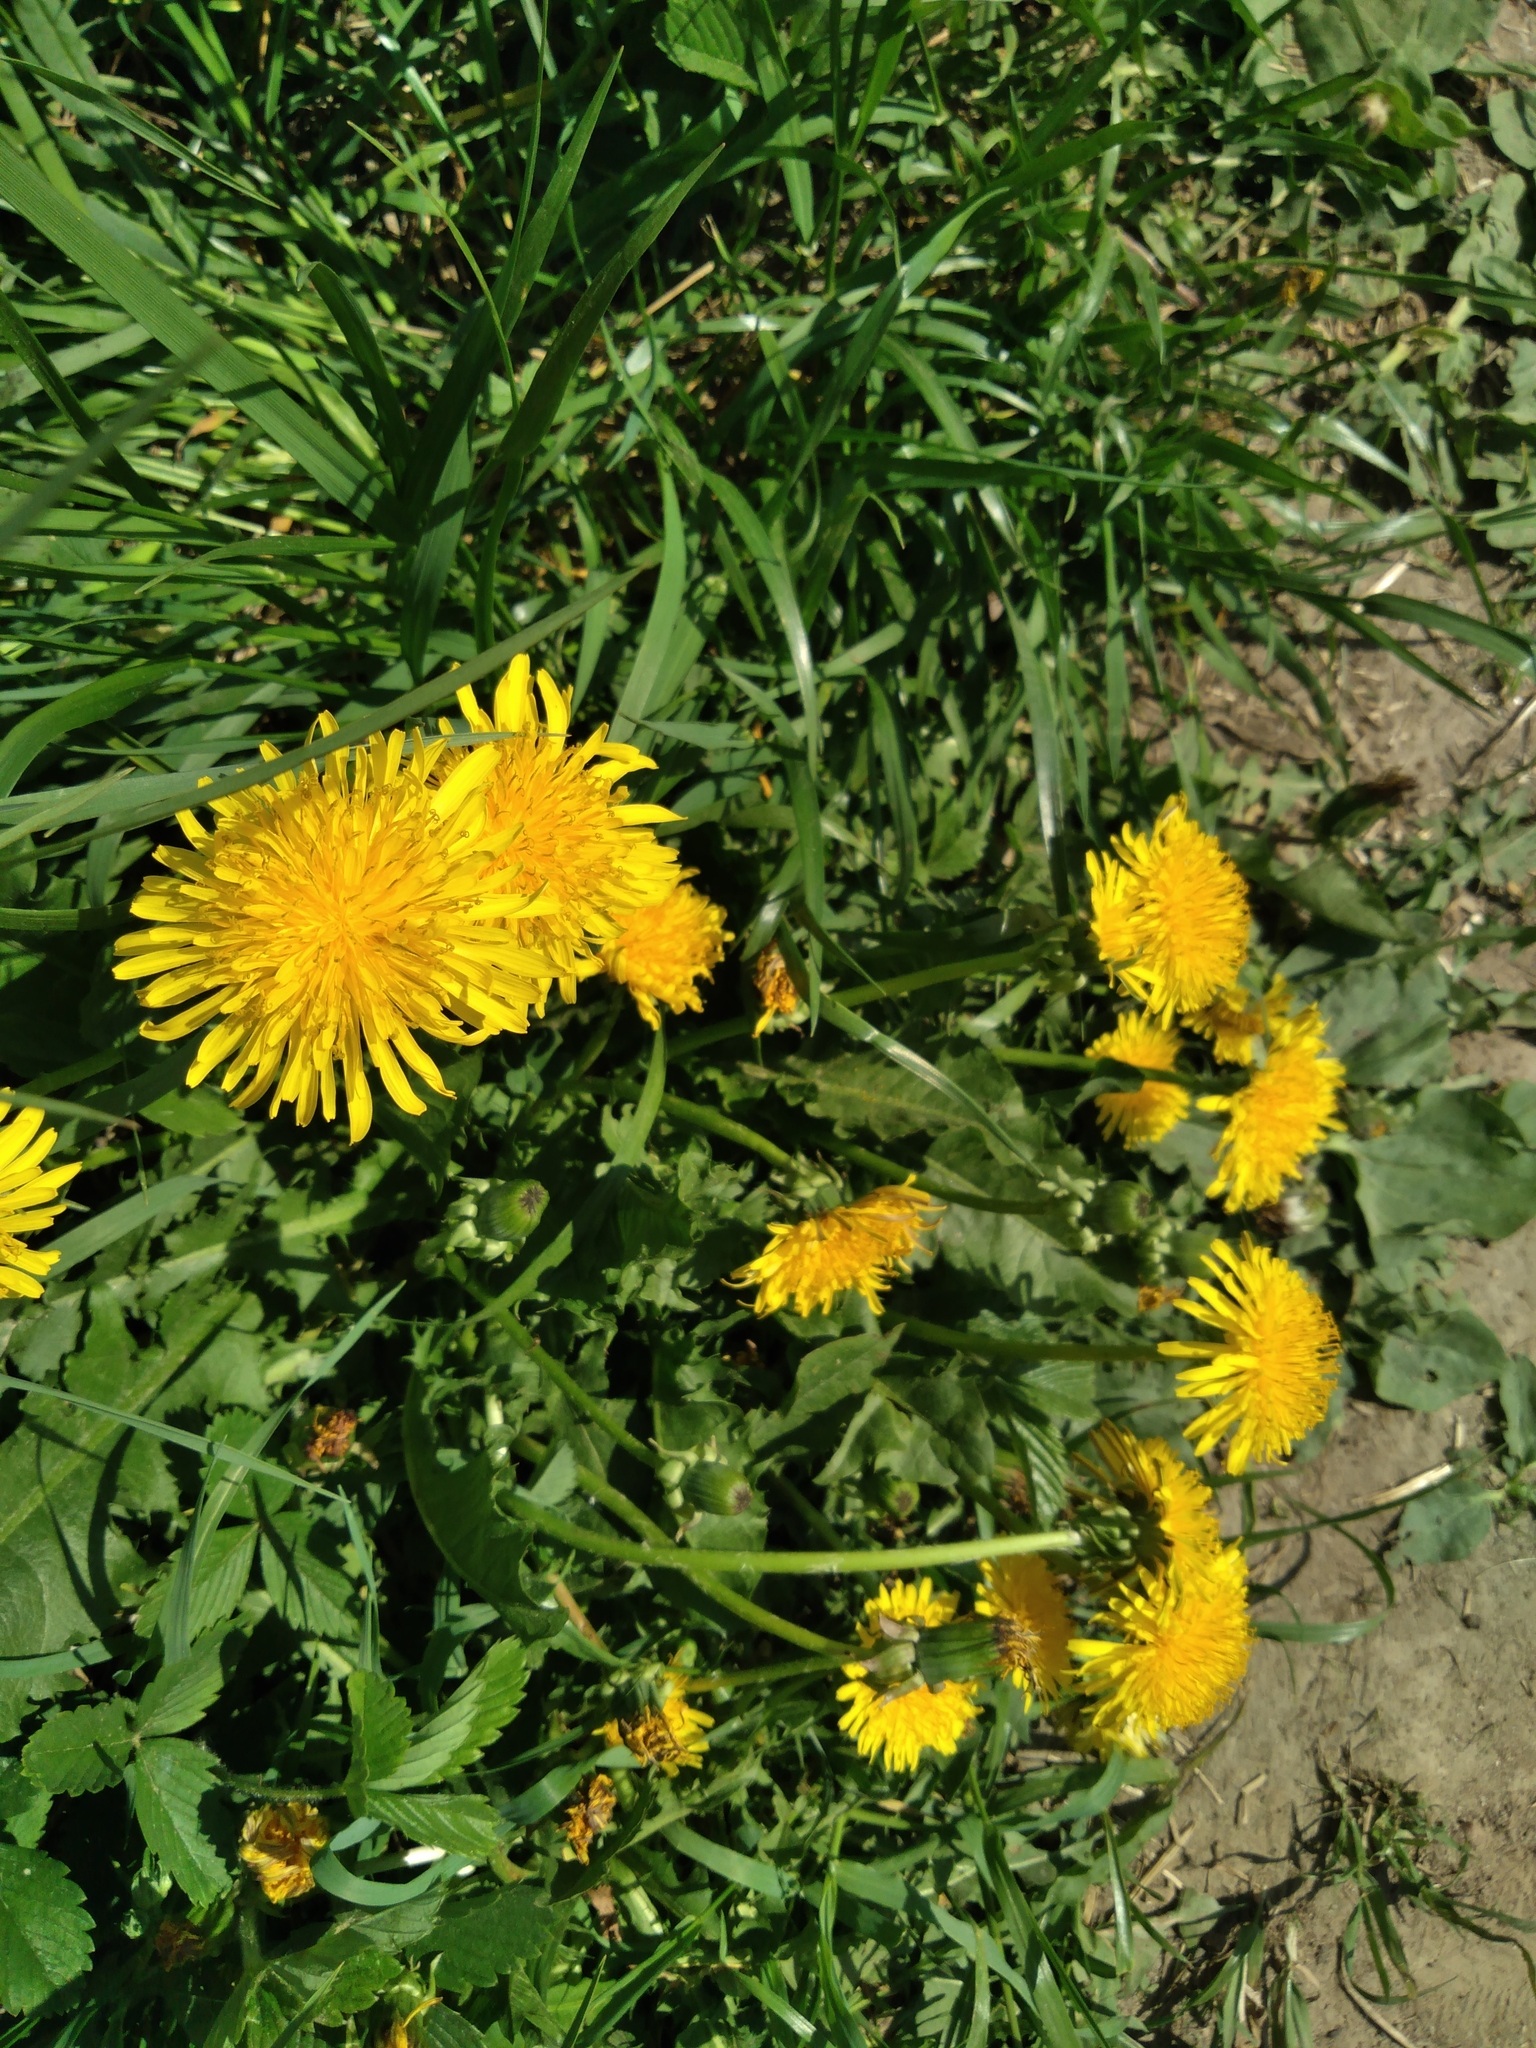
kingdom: Plantae
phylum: Tracheophyta
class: Magnoliopsida
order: Asterales
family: Asteraceae
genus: Taraxacum
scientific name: Taraxacum officinale
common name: Common dandelion
